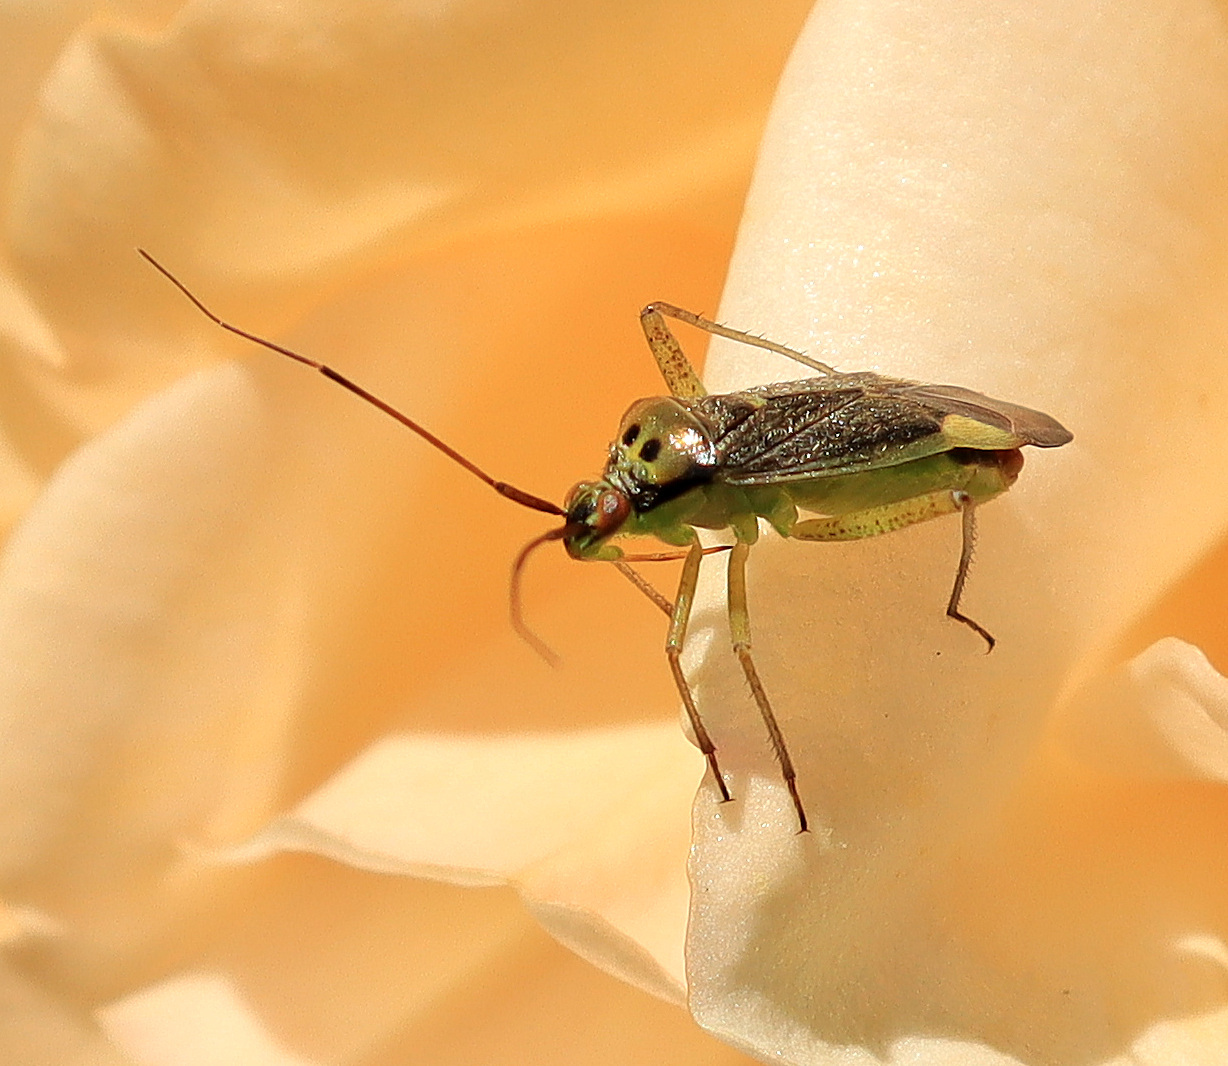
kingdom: Animalia
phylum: Arthropoda
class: Insecta
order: Hemiptera
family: Miridae
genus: Closterotomus
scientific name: Closterotomus trivialis
